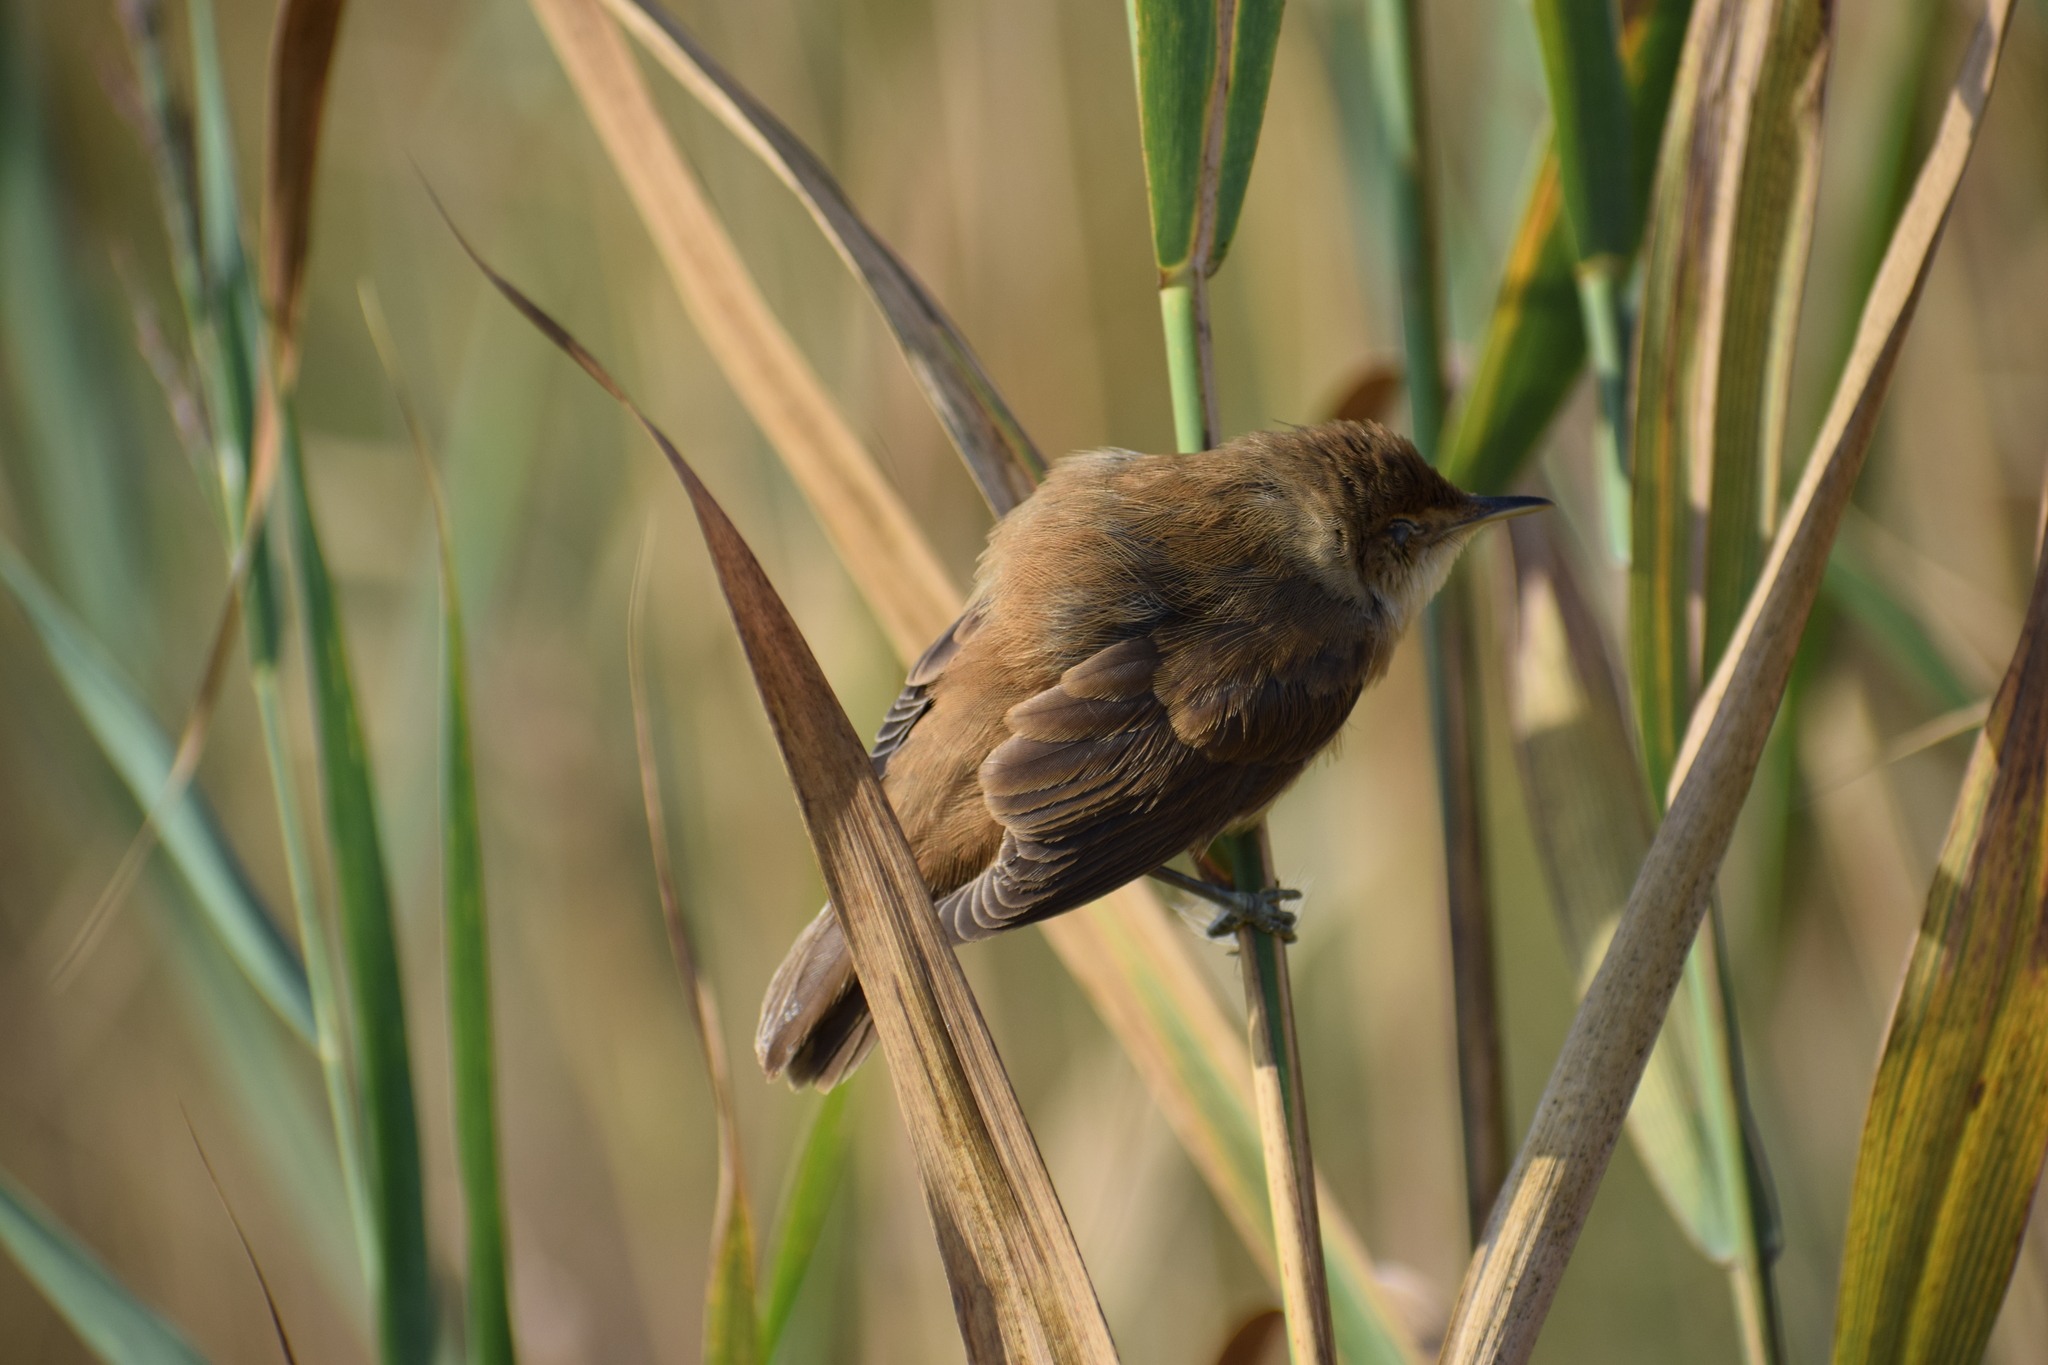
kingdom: Animalia
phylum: Chordata
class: Aves
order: Passeriformes
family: Acrocephalidae
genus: Acrocephalus
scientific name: Acrocephalus scirpaceus
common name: Eurasian reed warbler
